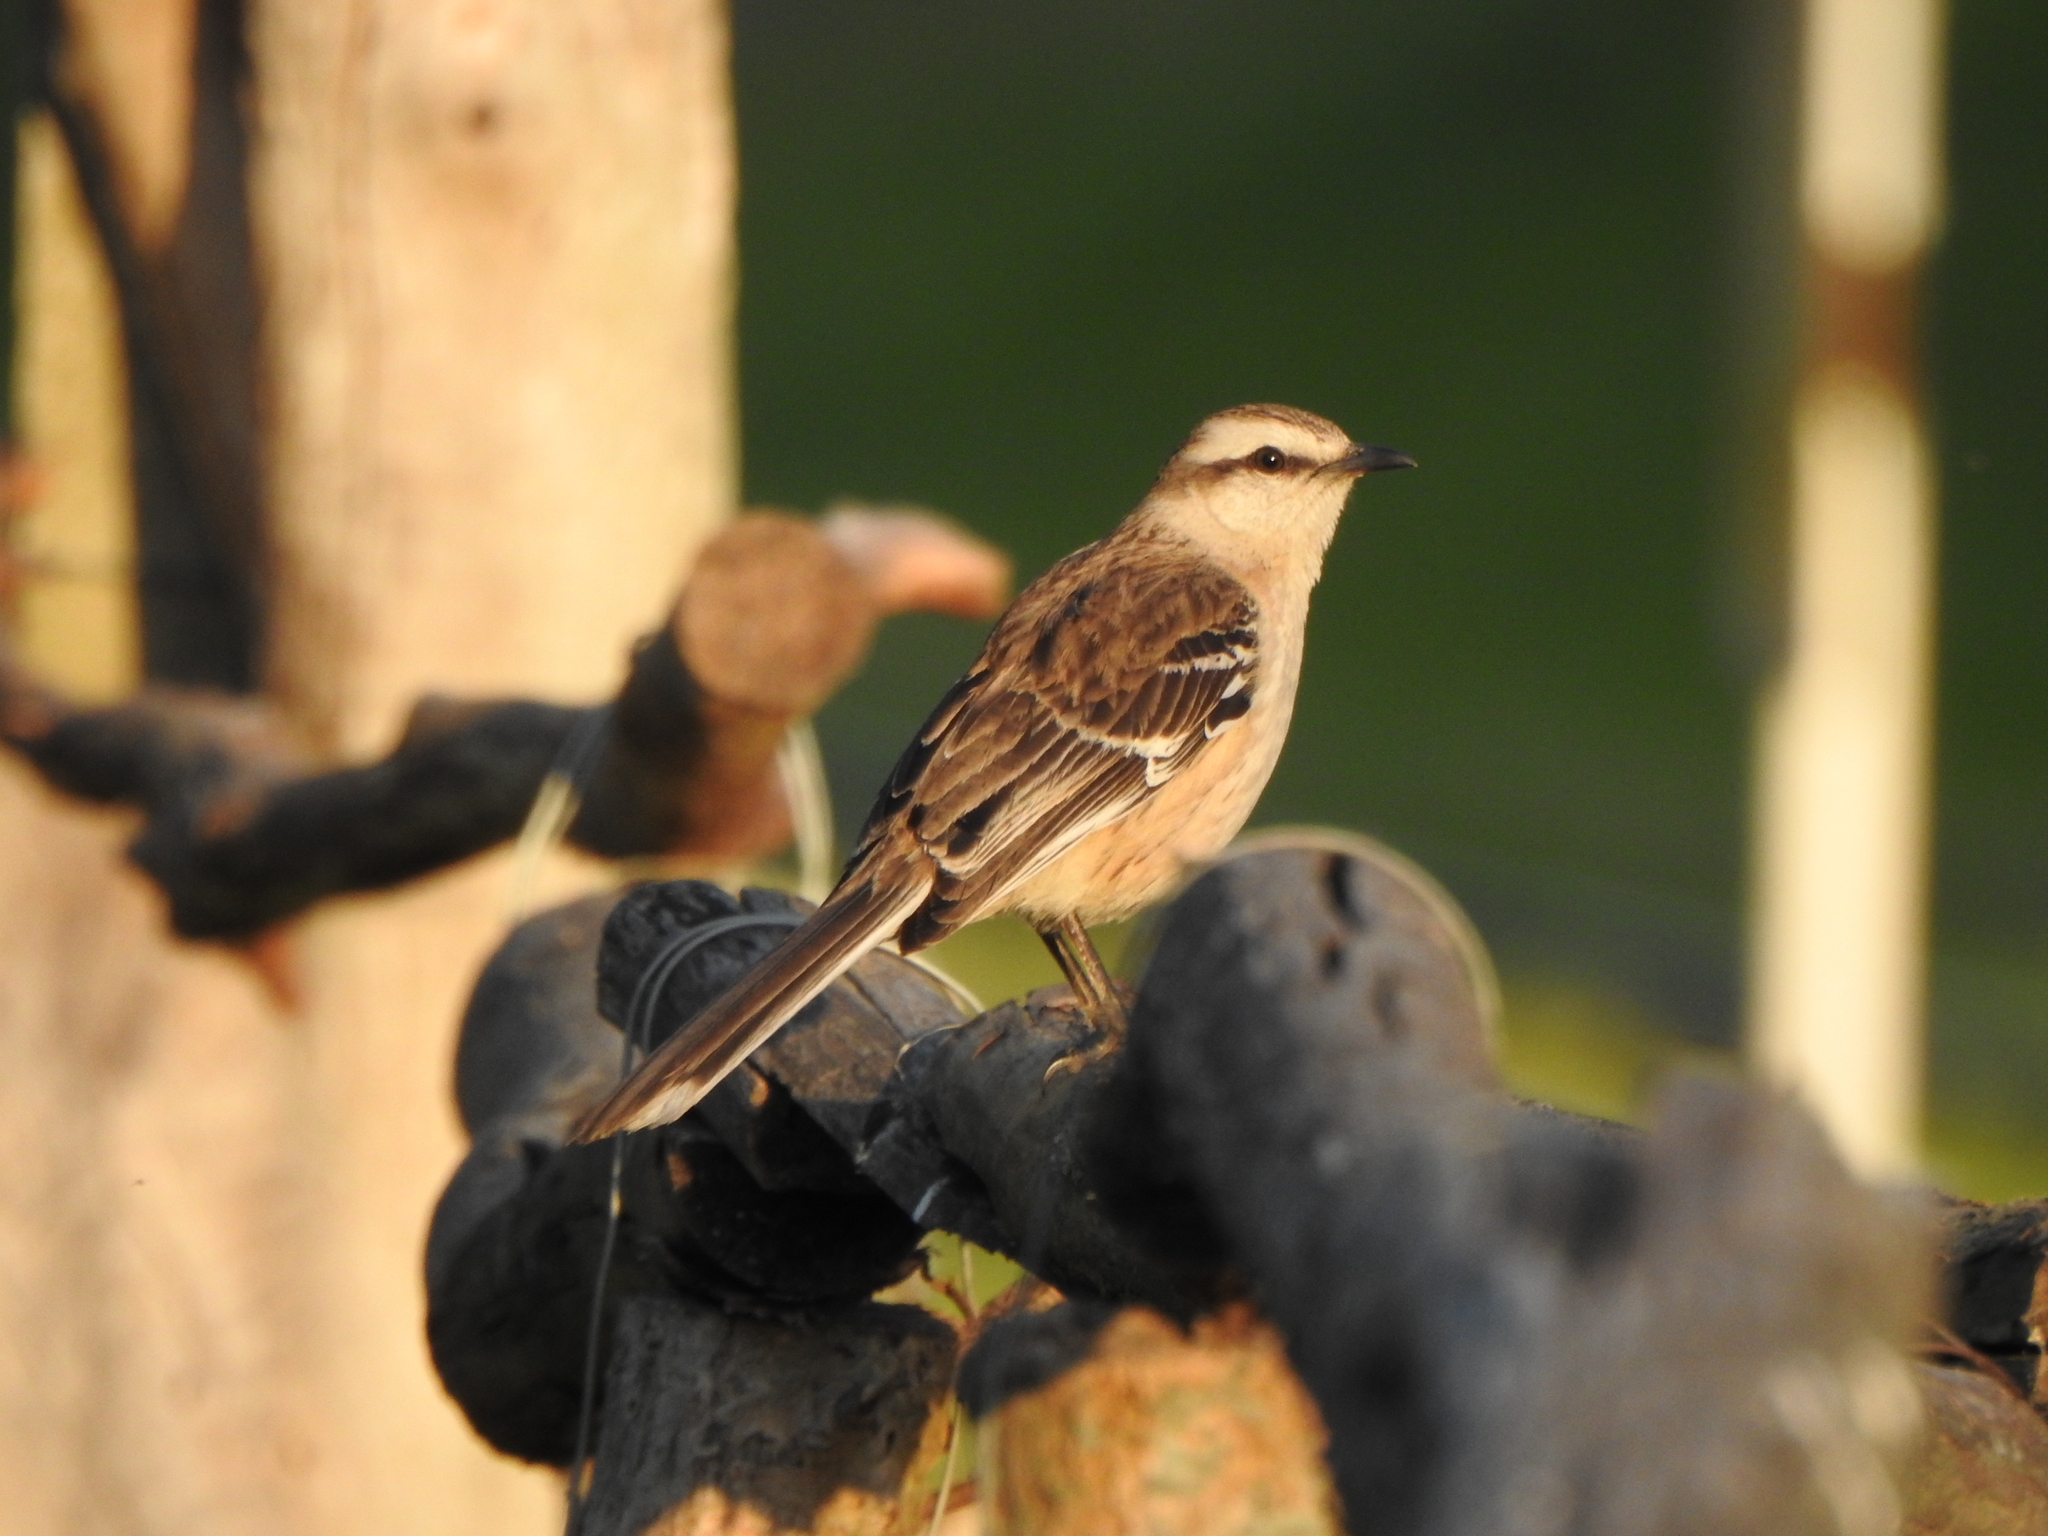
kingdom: Animalia
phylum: Chordata
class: Aves
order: Passeriformes
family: Mimidae
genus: Mimus
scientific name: Mimus saturninus
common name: Chalk-browed mockingbird
